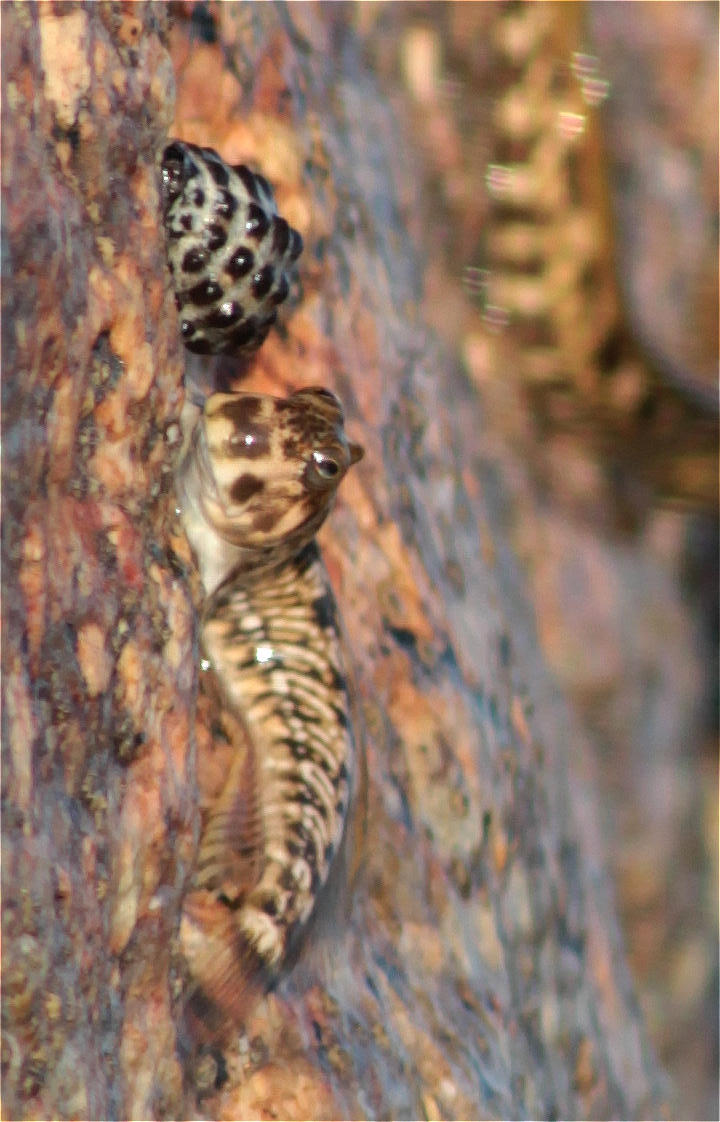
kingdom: Animalia
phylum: Chordata
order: Perciformes
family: Blenniidae
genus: Alticus
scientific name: Alticus magnusi
